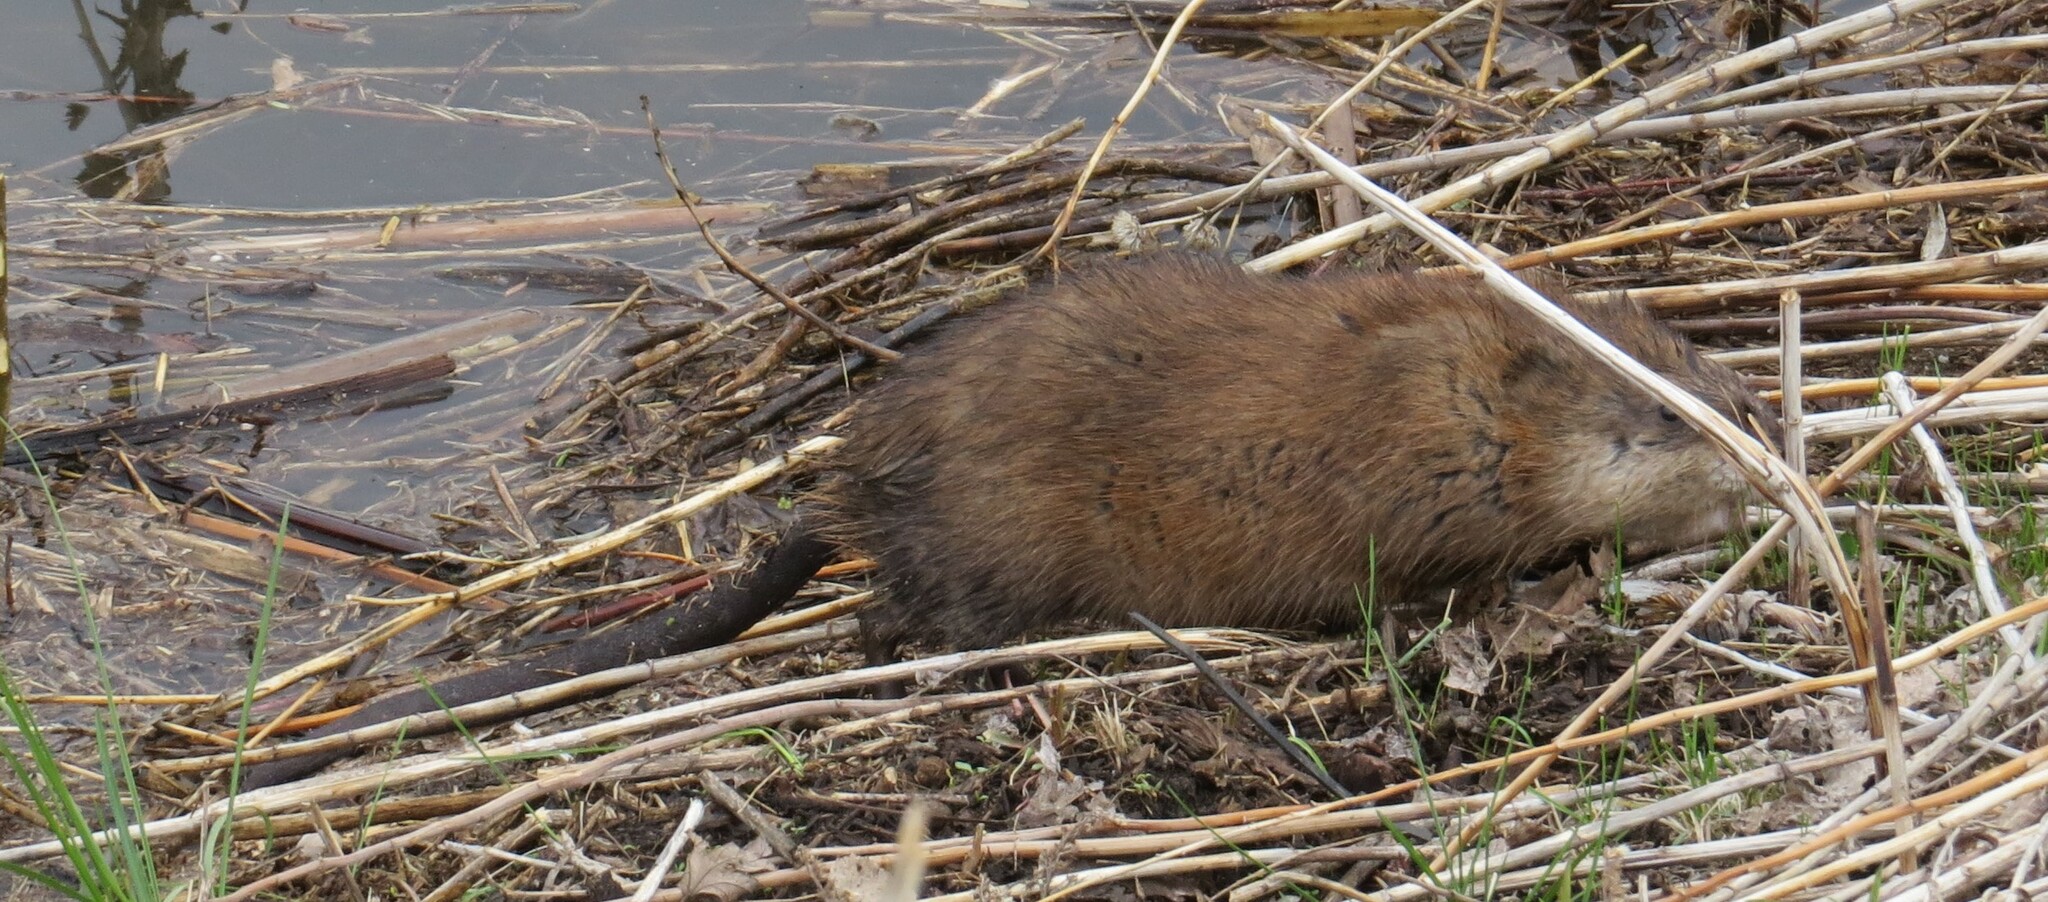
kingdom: Animalia
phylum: Chordata
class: Mammalia
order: Rodentia
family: Cricetidae
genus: Ondatra
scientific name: Ondatra zibethicus
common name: Muskrat
